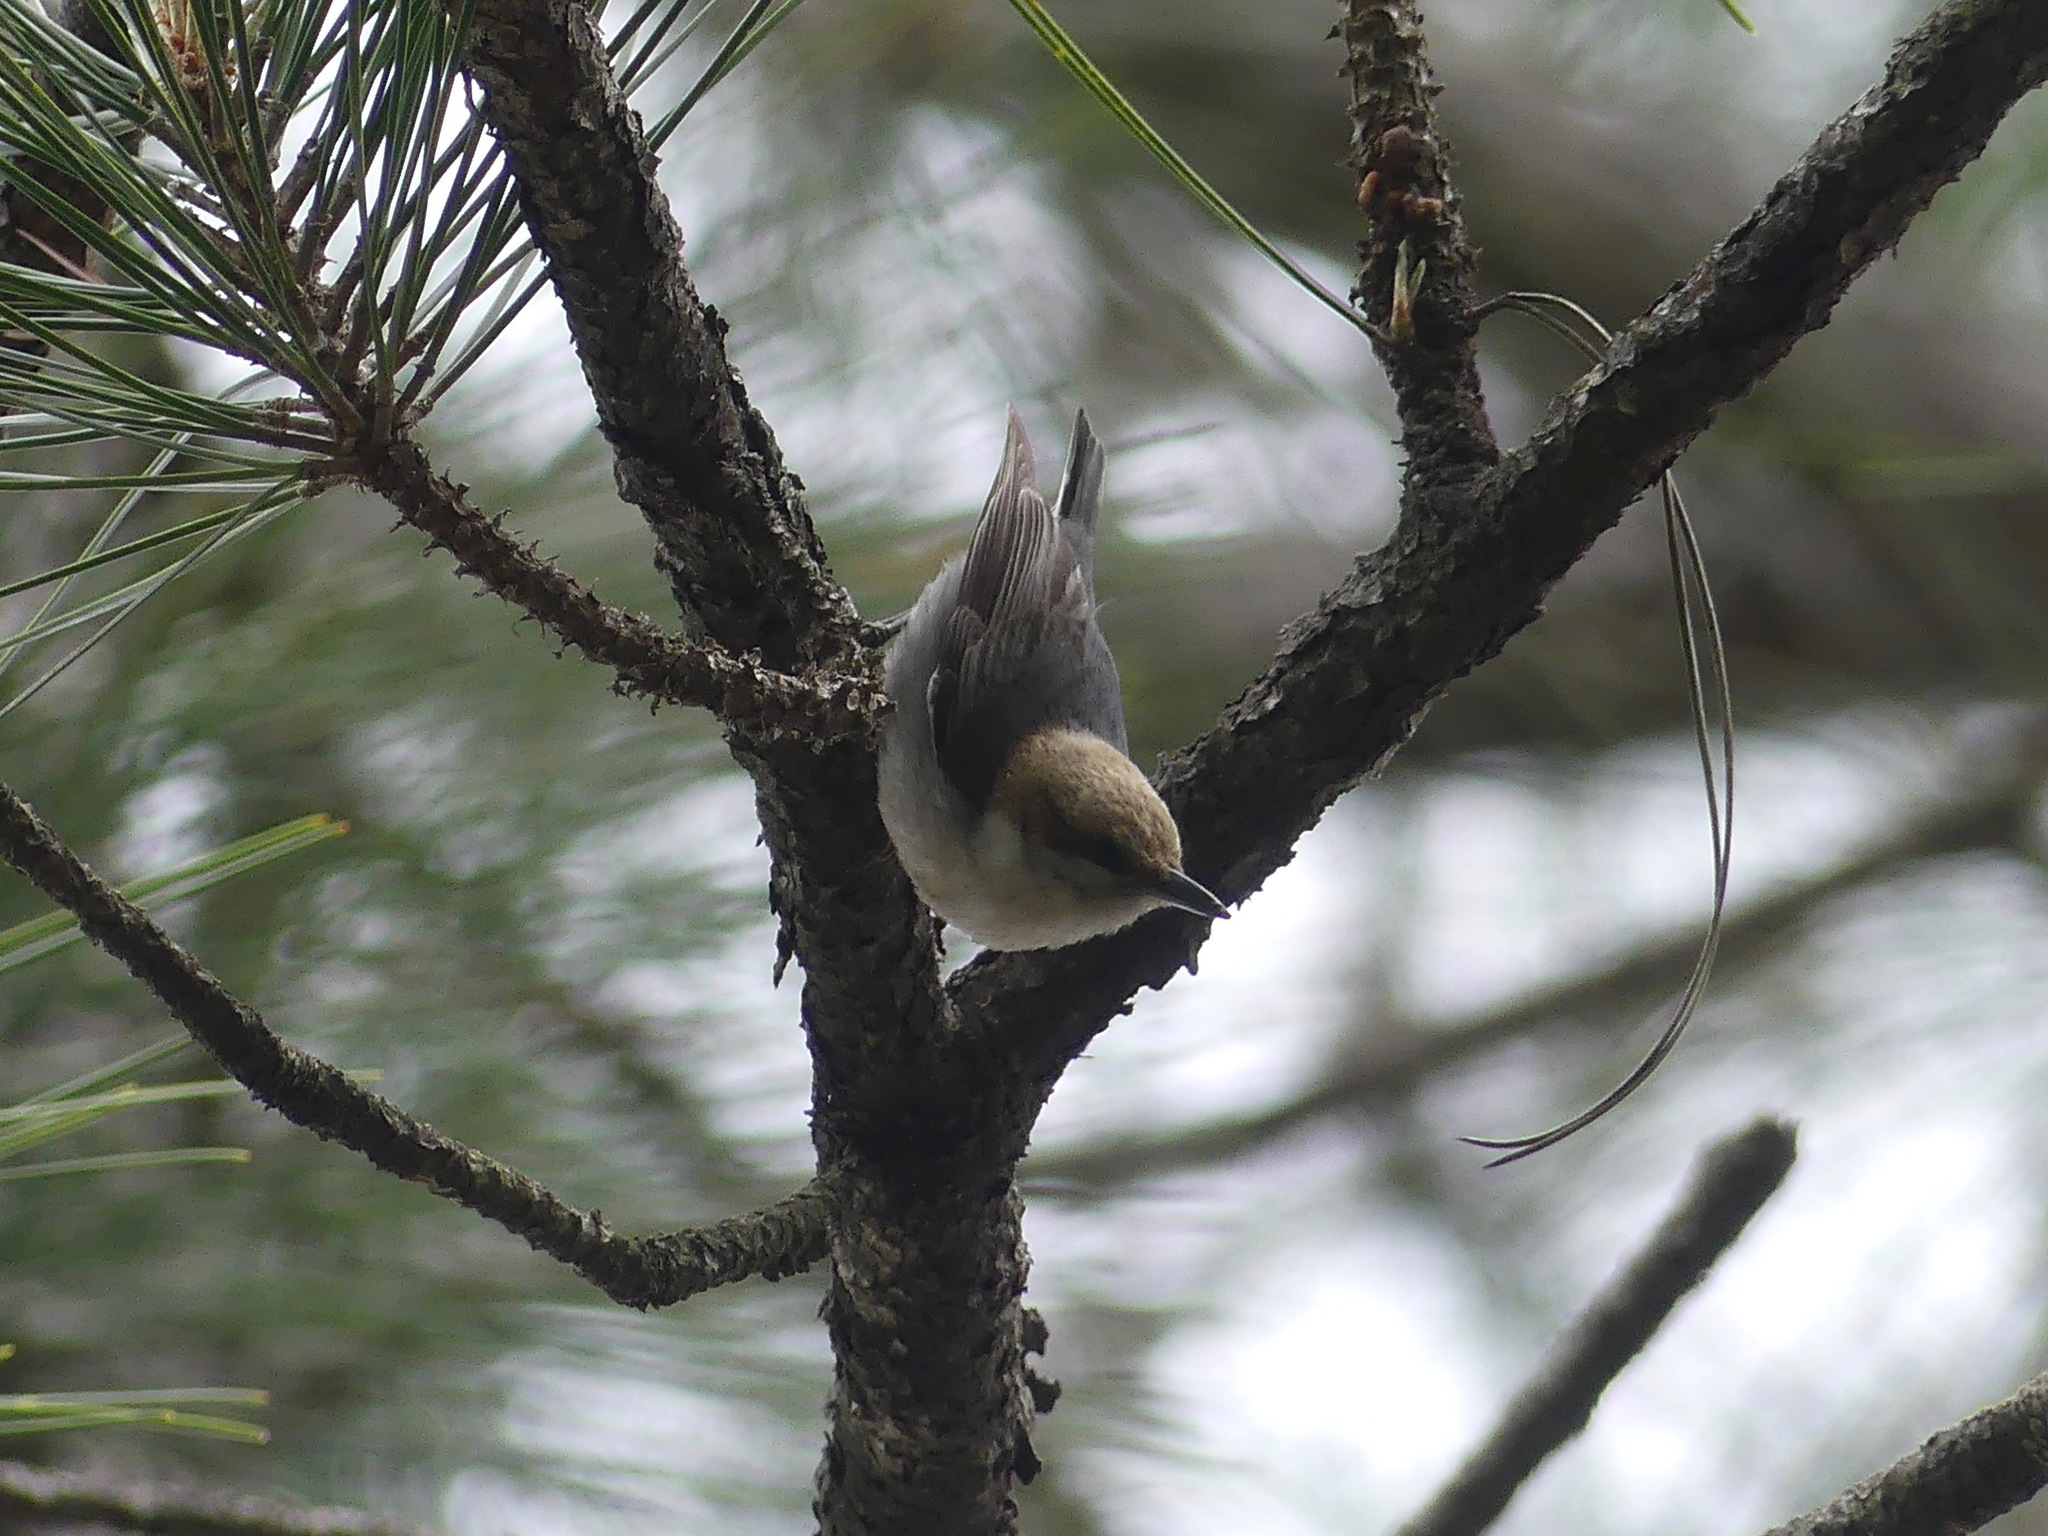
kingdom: Animalia
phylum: Chordata
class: Aves
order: Passeriformes
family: Sittidae
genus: Sitta
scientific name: Sitta pusilla
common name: Brown-headed nuthatch
